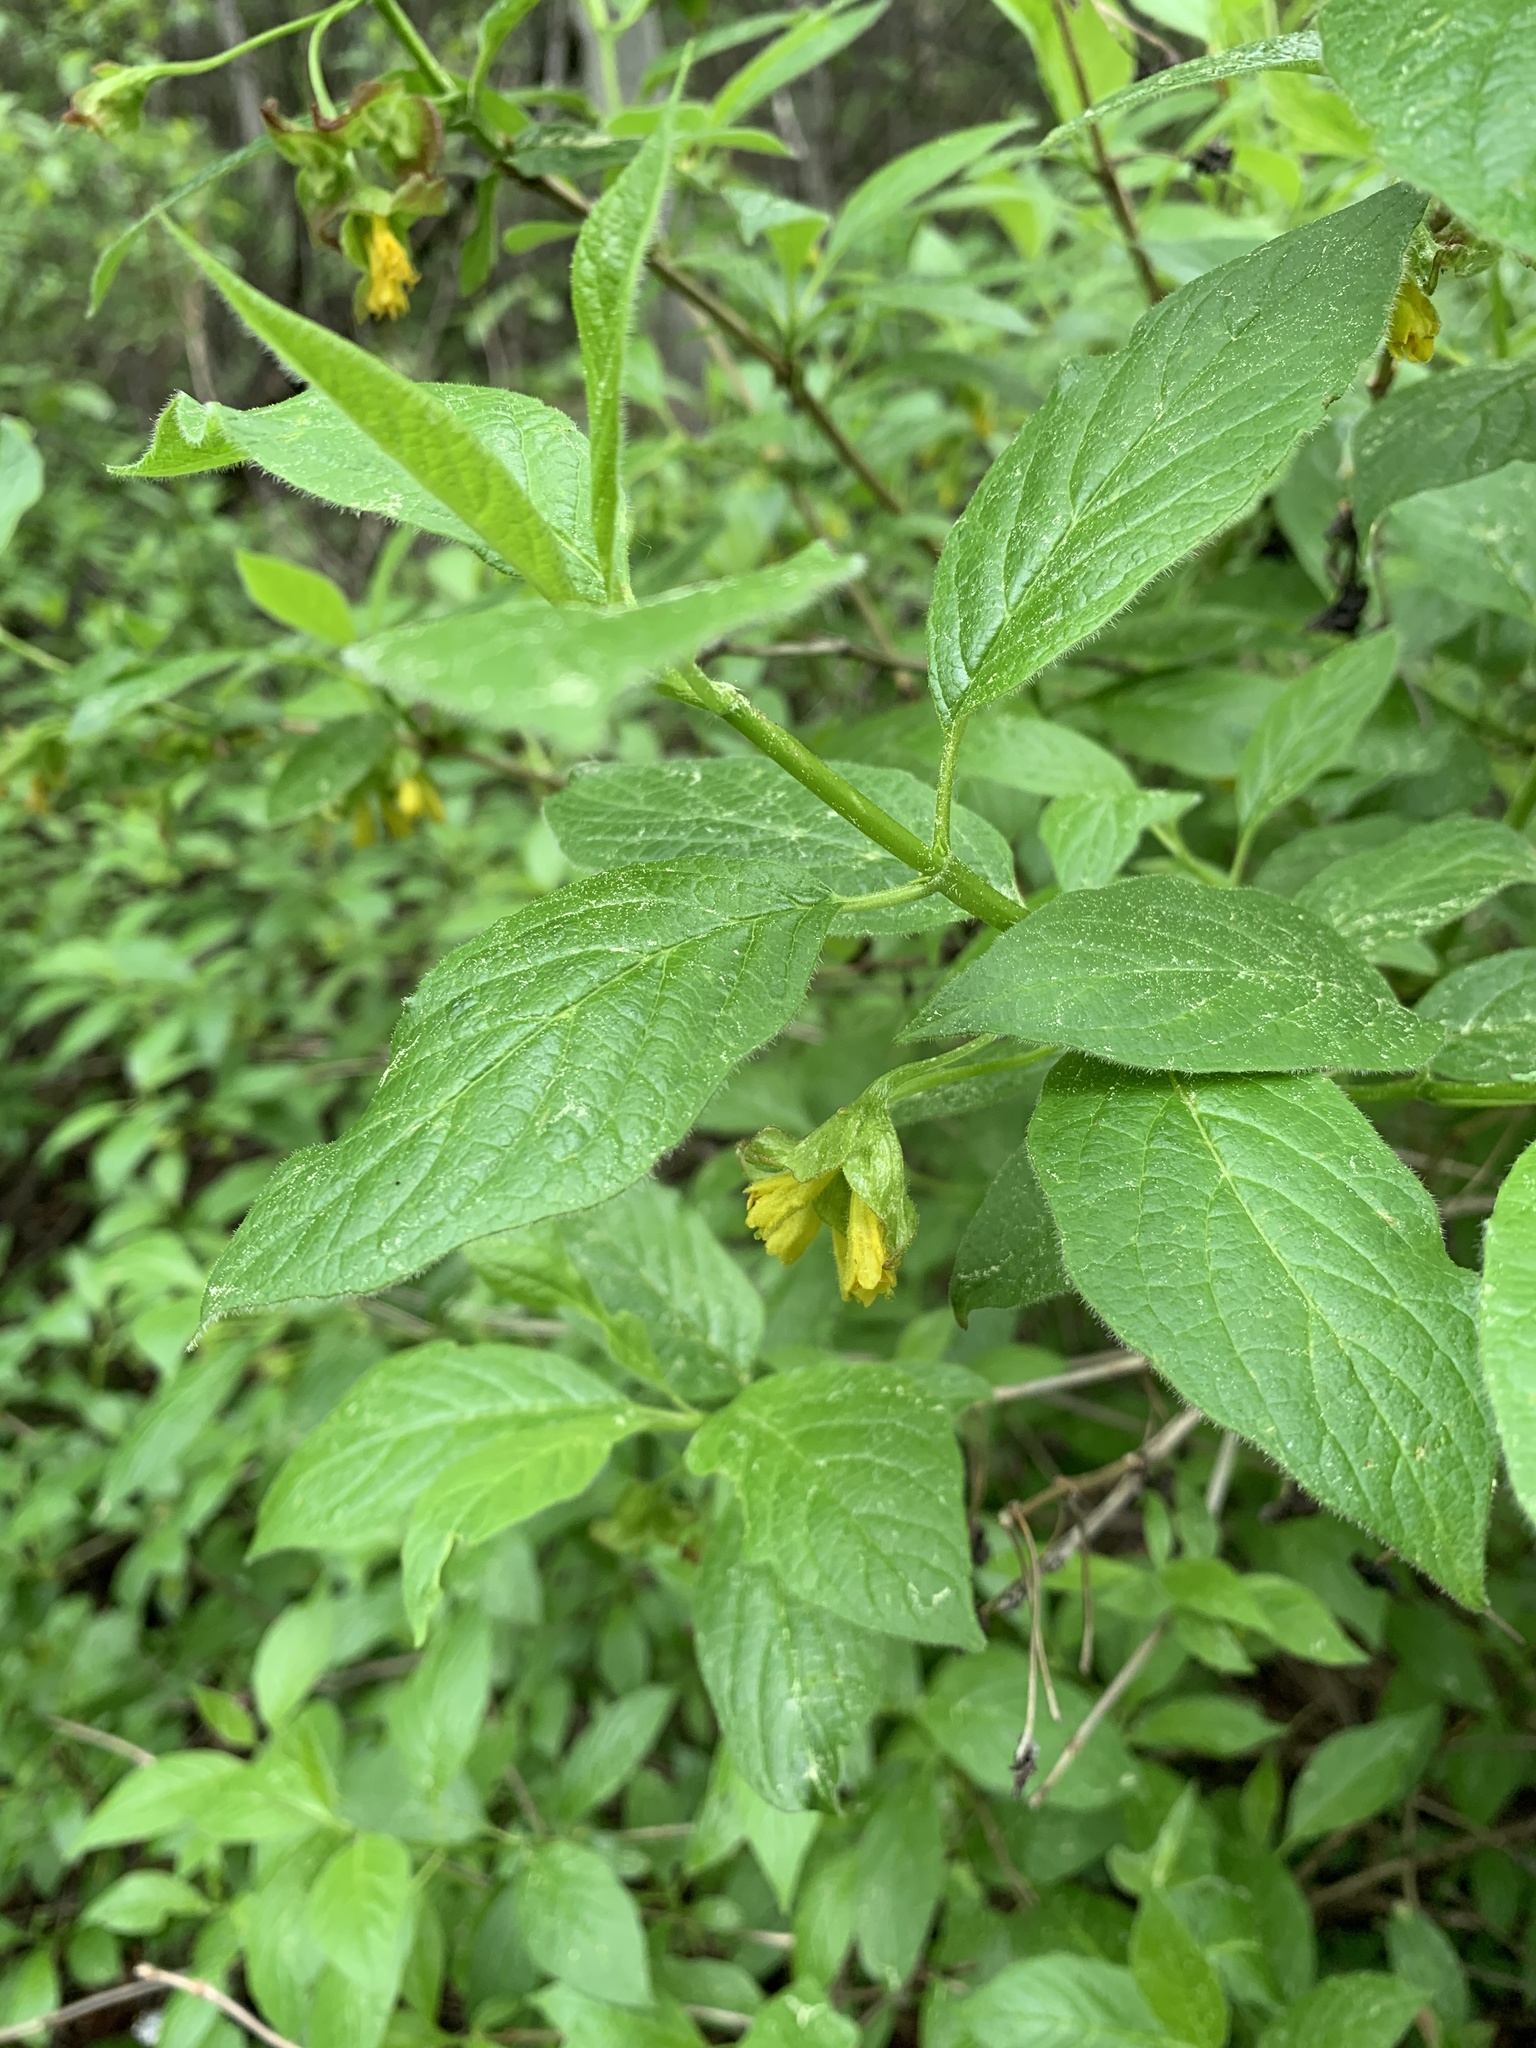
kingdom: Plantae
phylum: Tracheophyta
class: Magnoliopsida
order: Dipsacales
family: Caprifoliaceae
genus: Lonicera
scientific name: Lonicera involucrata
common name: Californian honeysuckle
